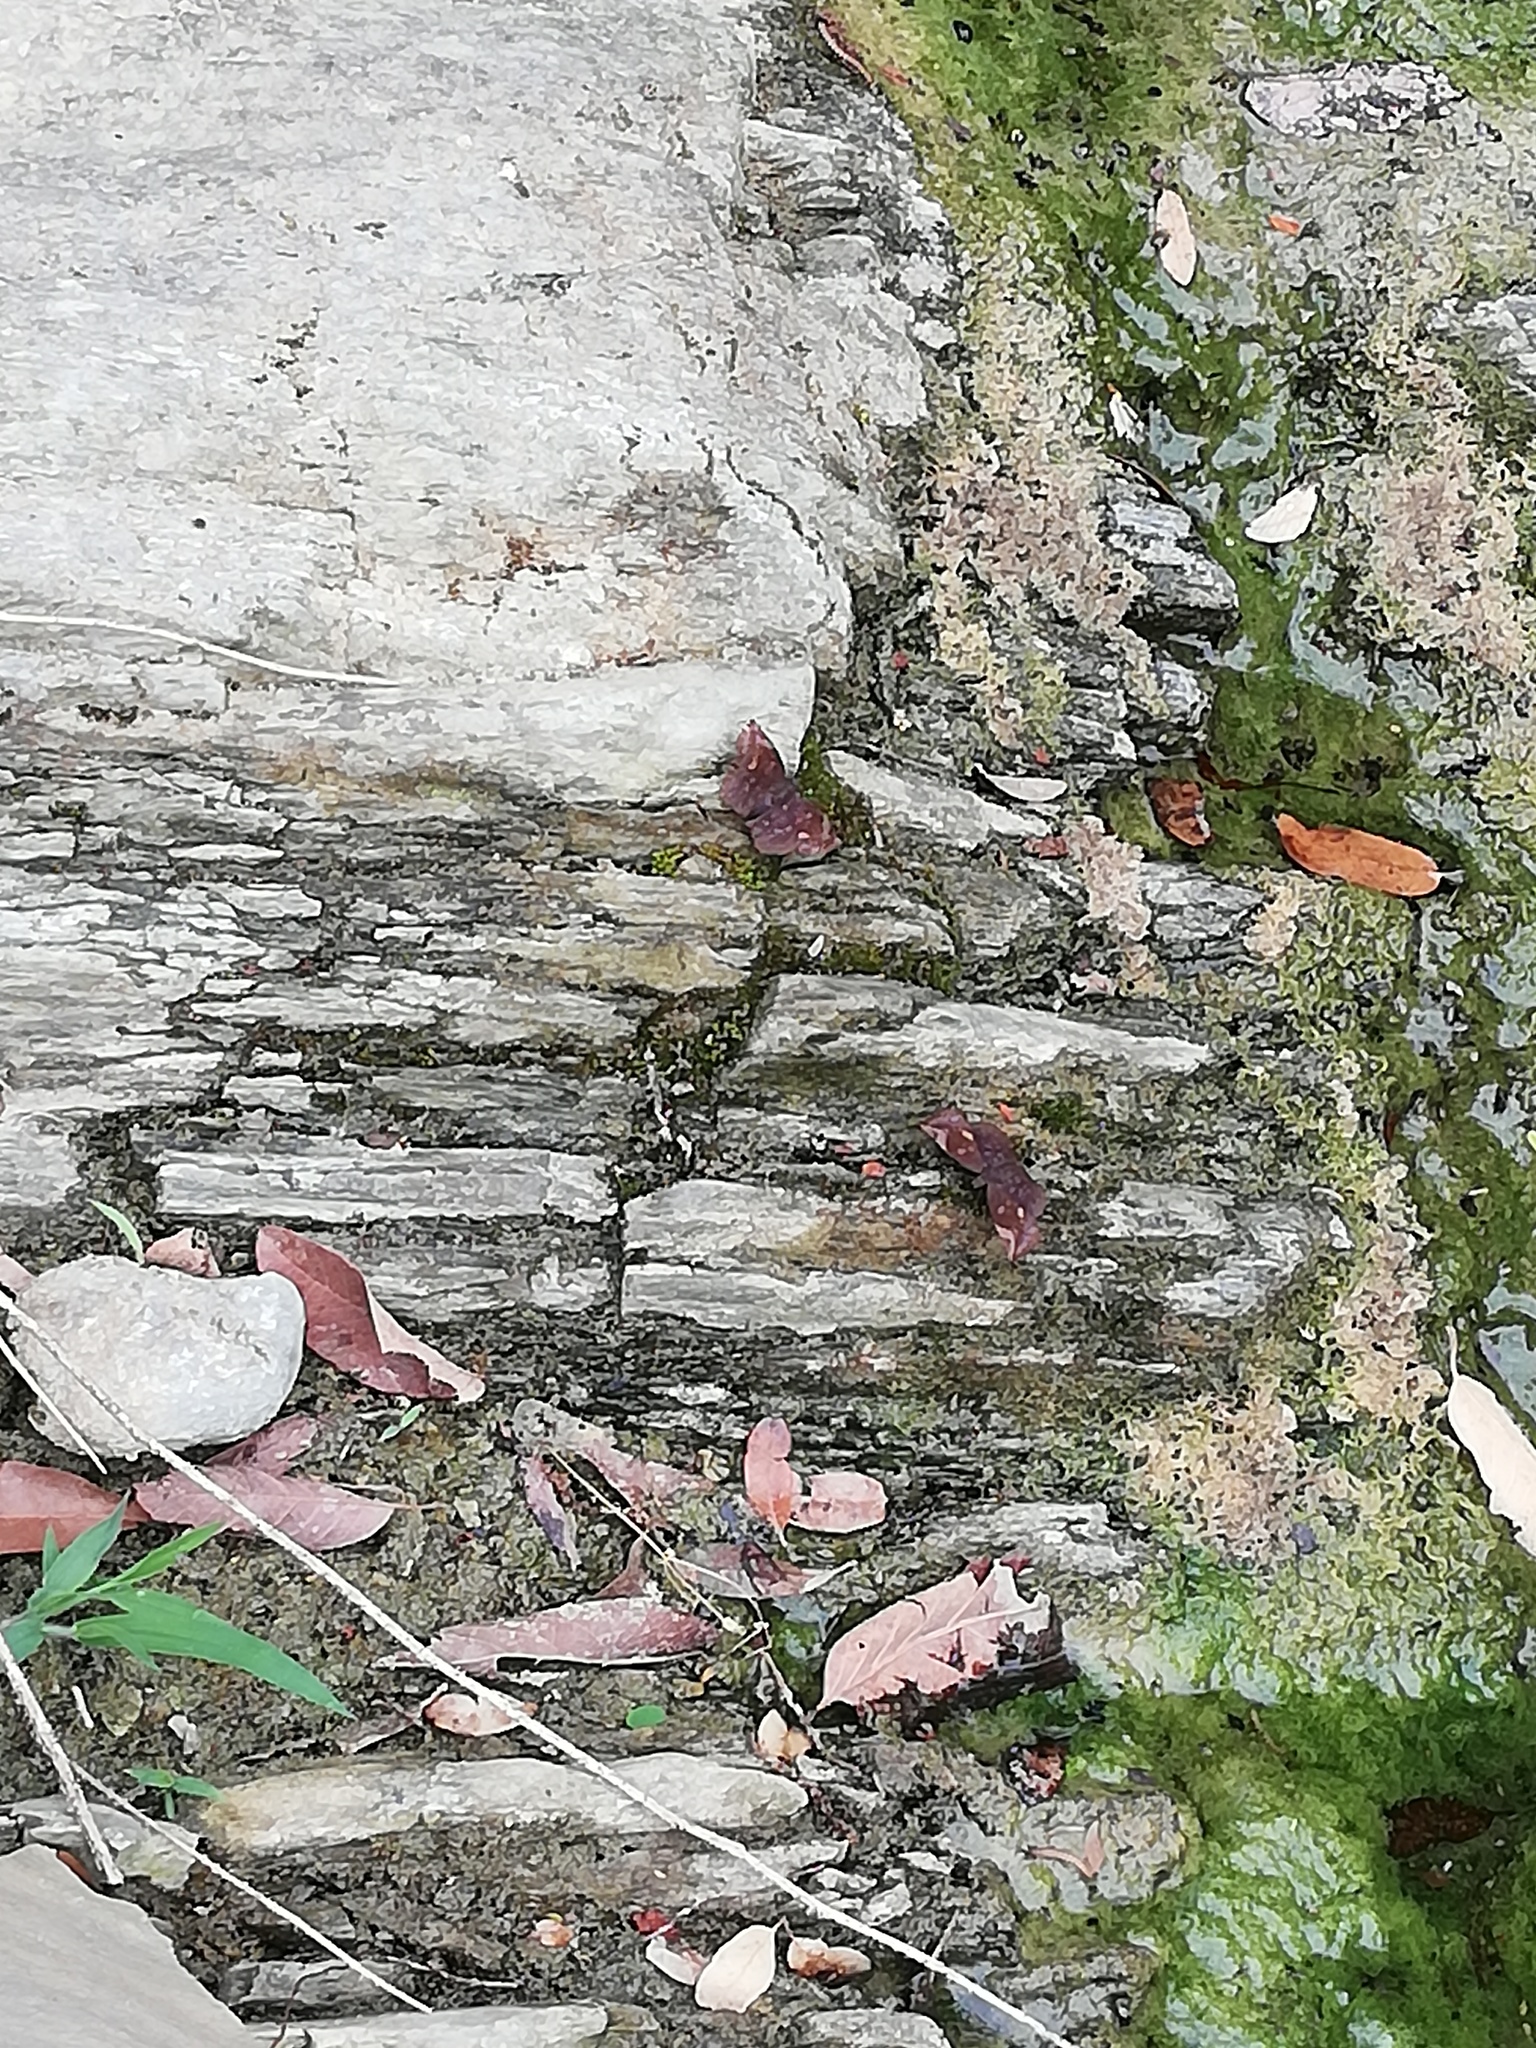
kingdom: Animalia
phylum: Arthropoda
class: Insecta
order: Lepidoptera
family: Hesperiidae
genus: Achlyodes
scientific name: Achlyodes thraso
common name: Sickle-winged skipper
